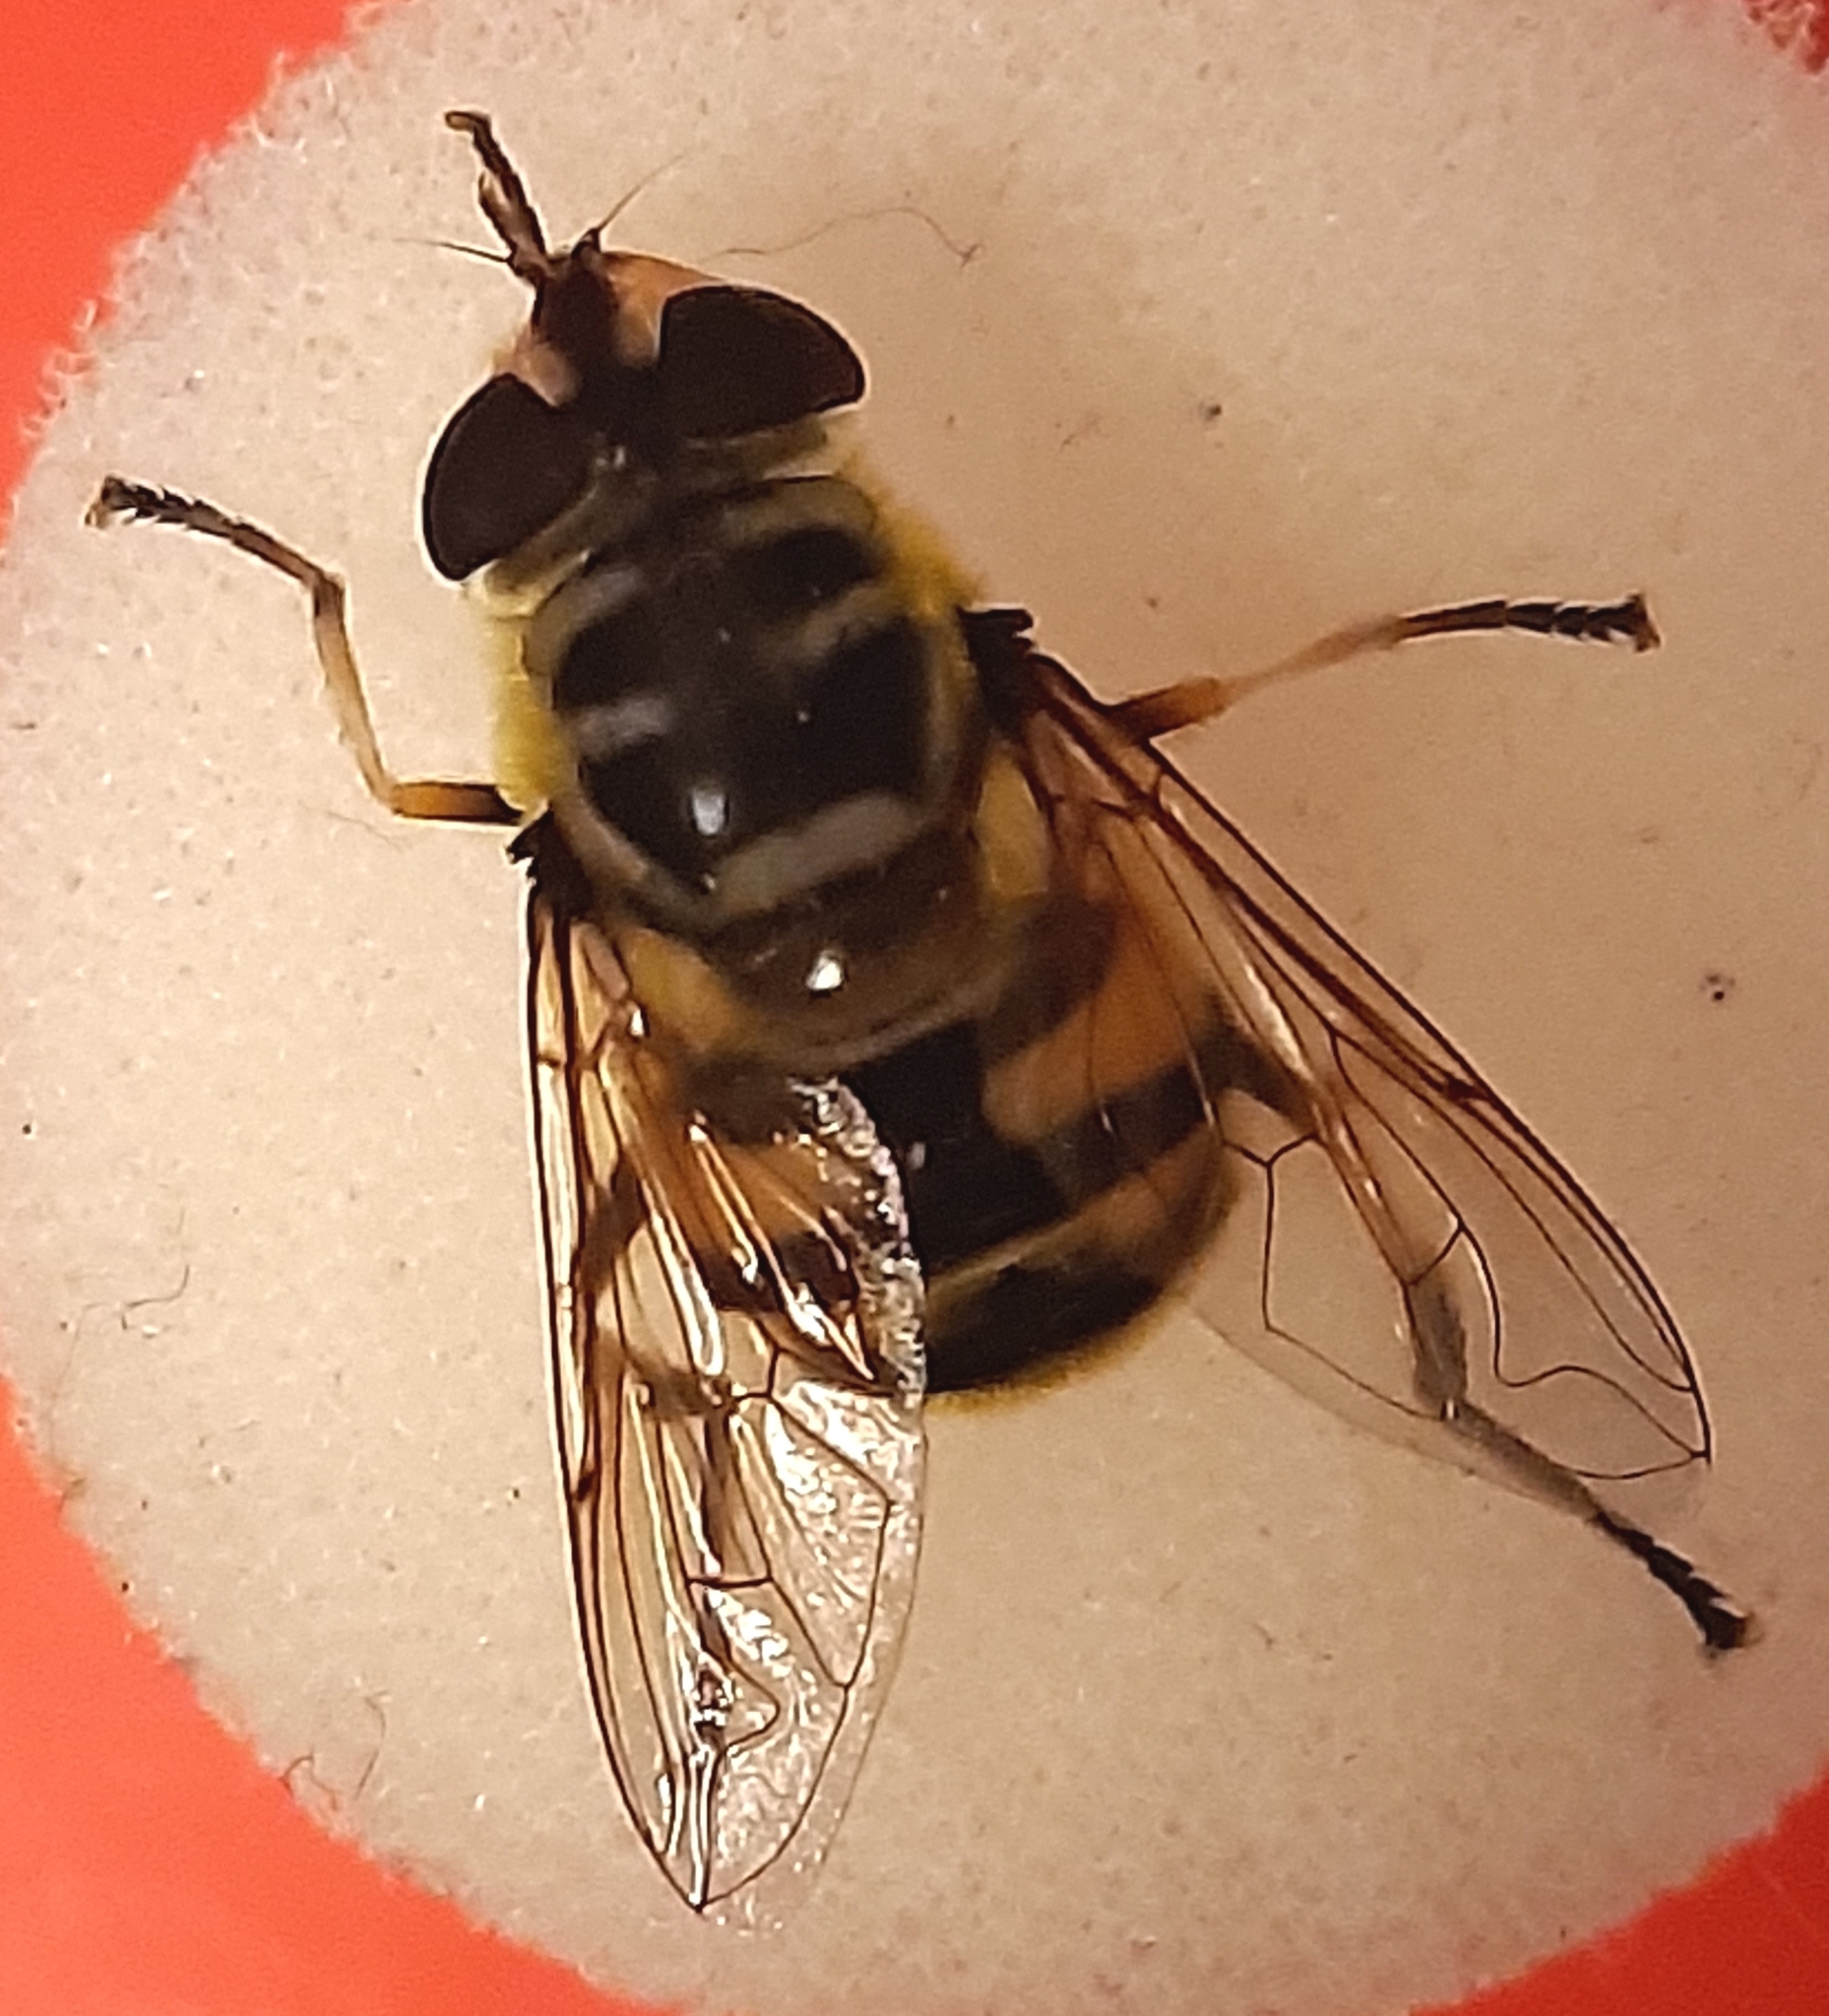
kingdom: Animalia
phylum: Arthropoda
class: Insecta
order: Diptera
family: Syrphidae
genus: Myathropa
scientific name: Myathropa florea
